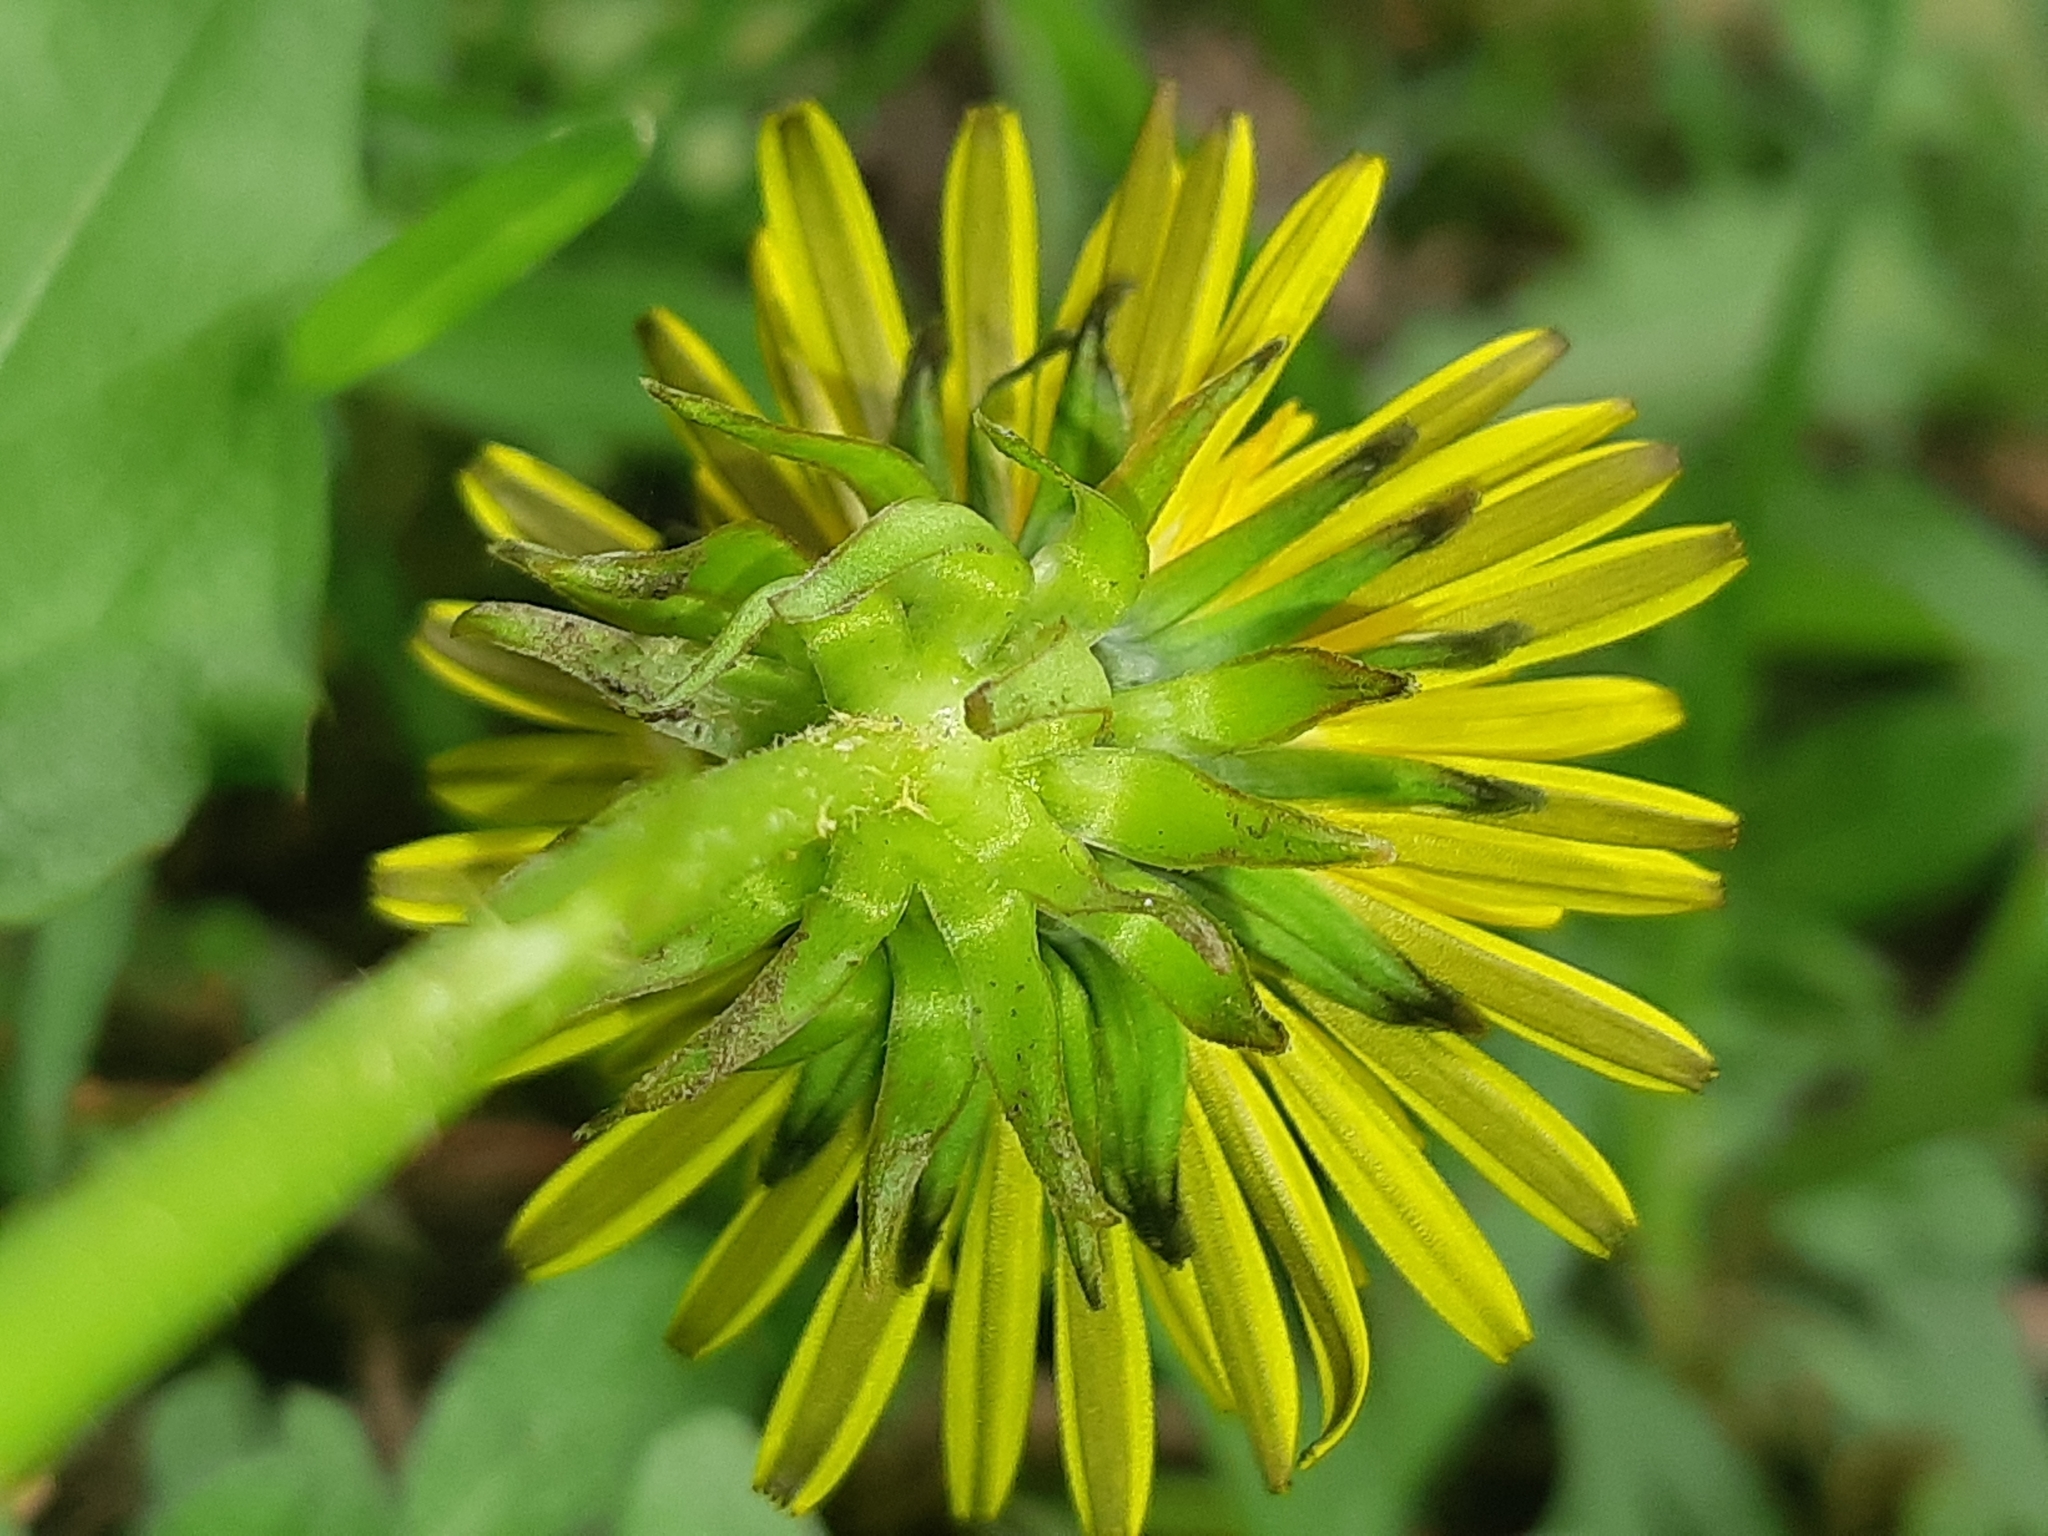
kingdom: Plantae
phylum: Tracheophyta
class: Magnoliopsida
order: Asterales
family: Asteraceae
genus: Taraxacum
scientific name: Taraxacum officinale
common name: Common dandelion
